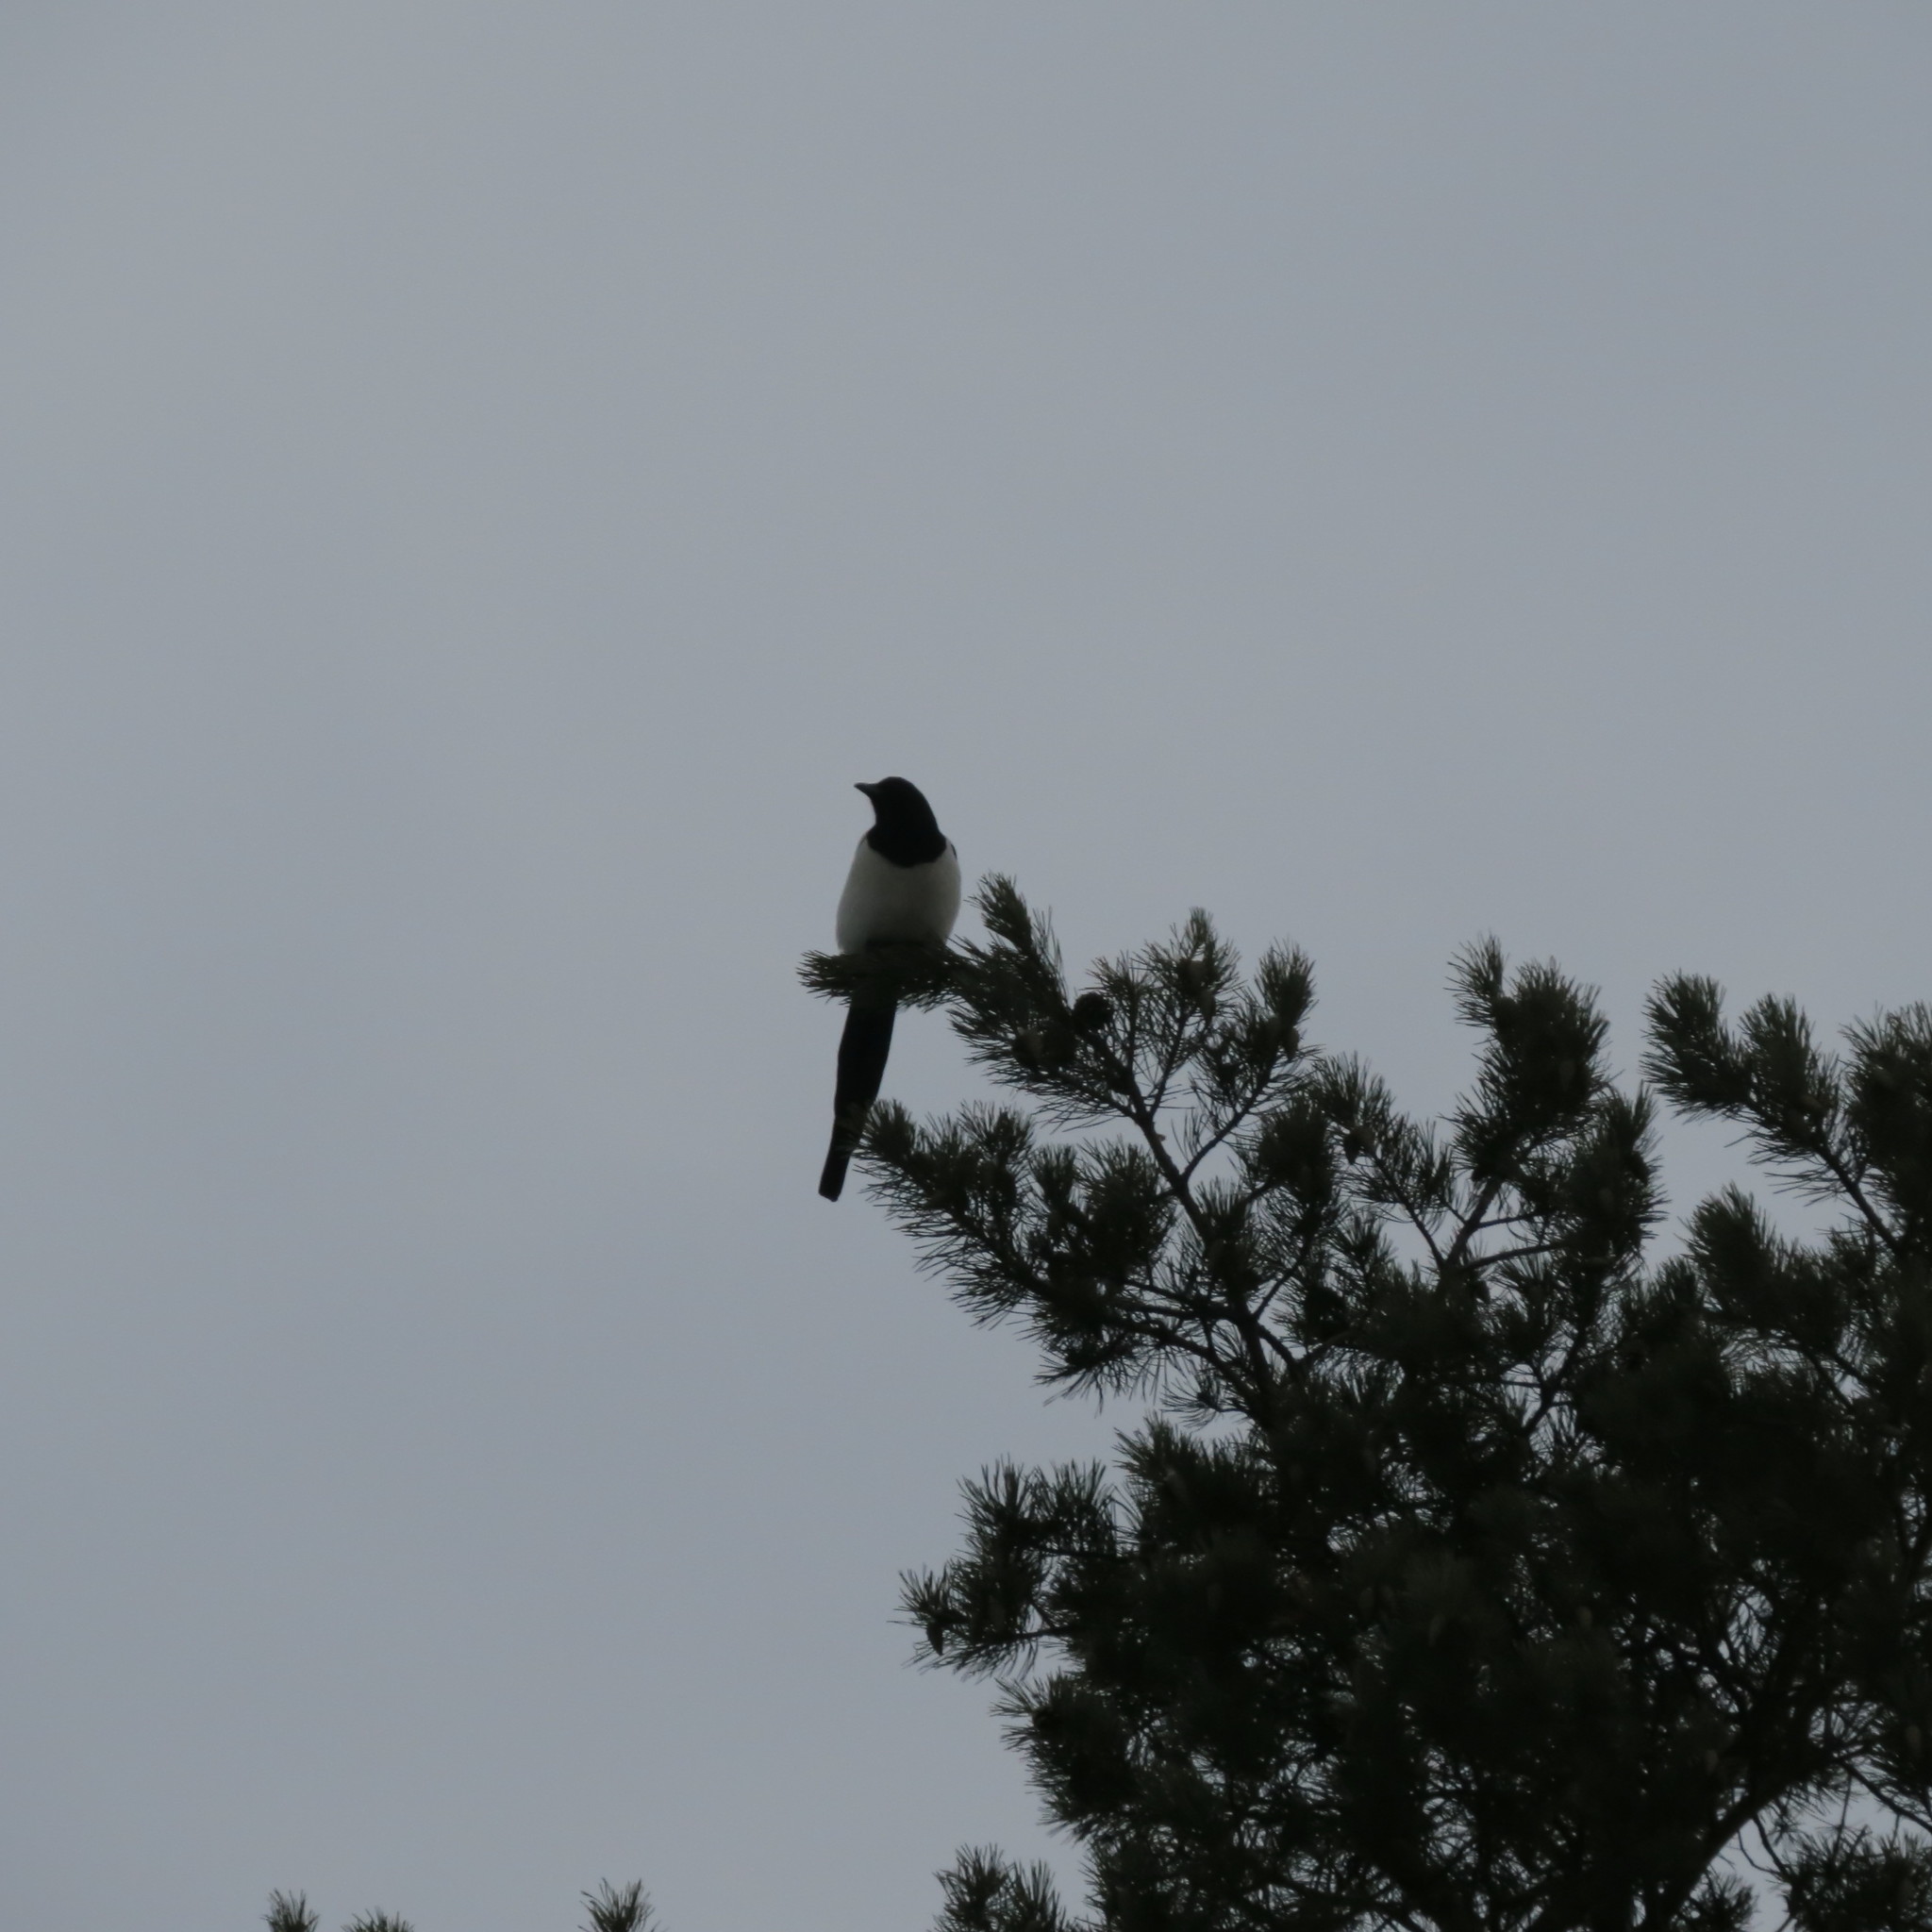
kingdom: Animalia
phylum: Chordata
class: Aves
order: Passeriformes
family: Corvidae
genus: Pica
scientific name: Pica pica
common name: Eurasian magpie
